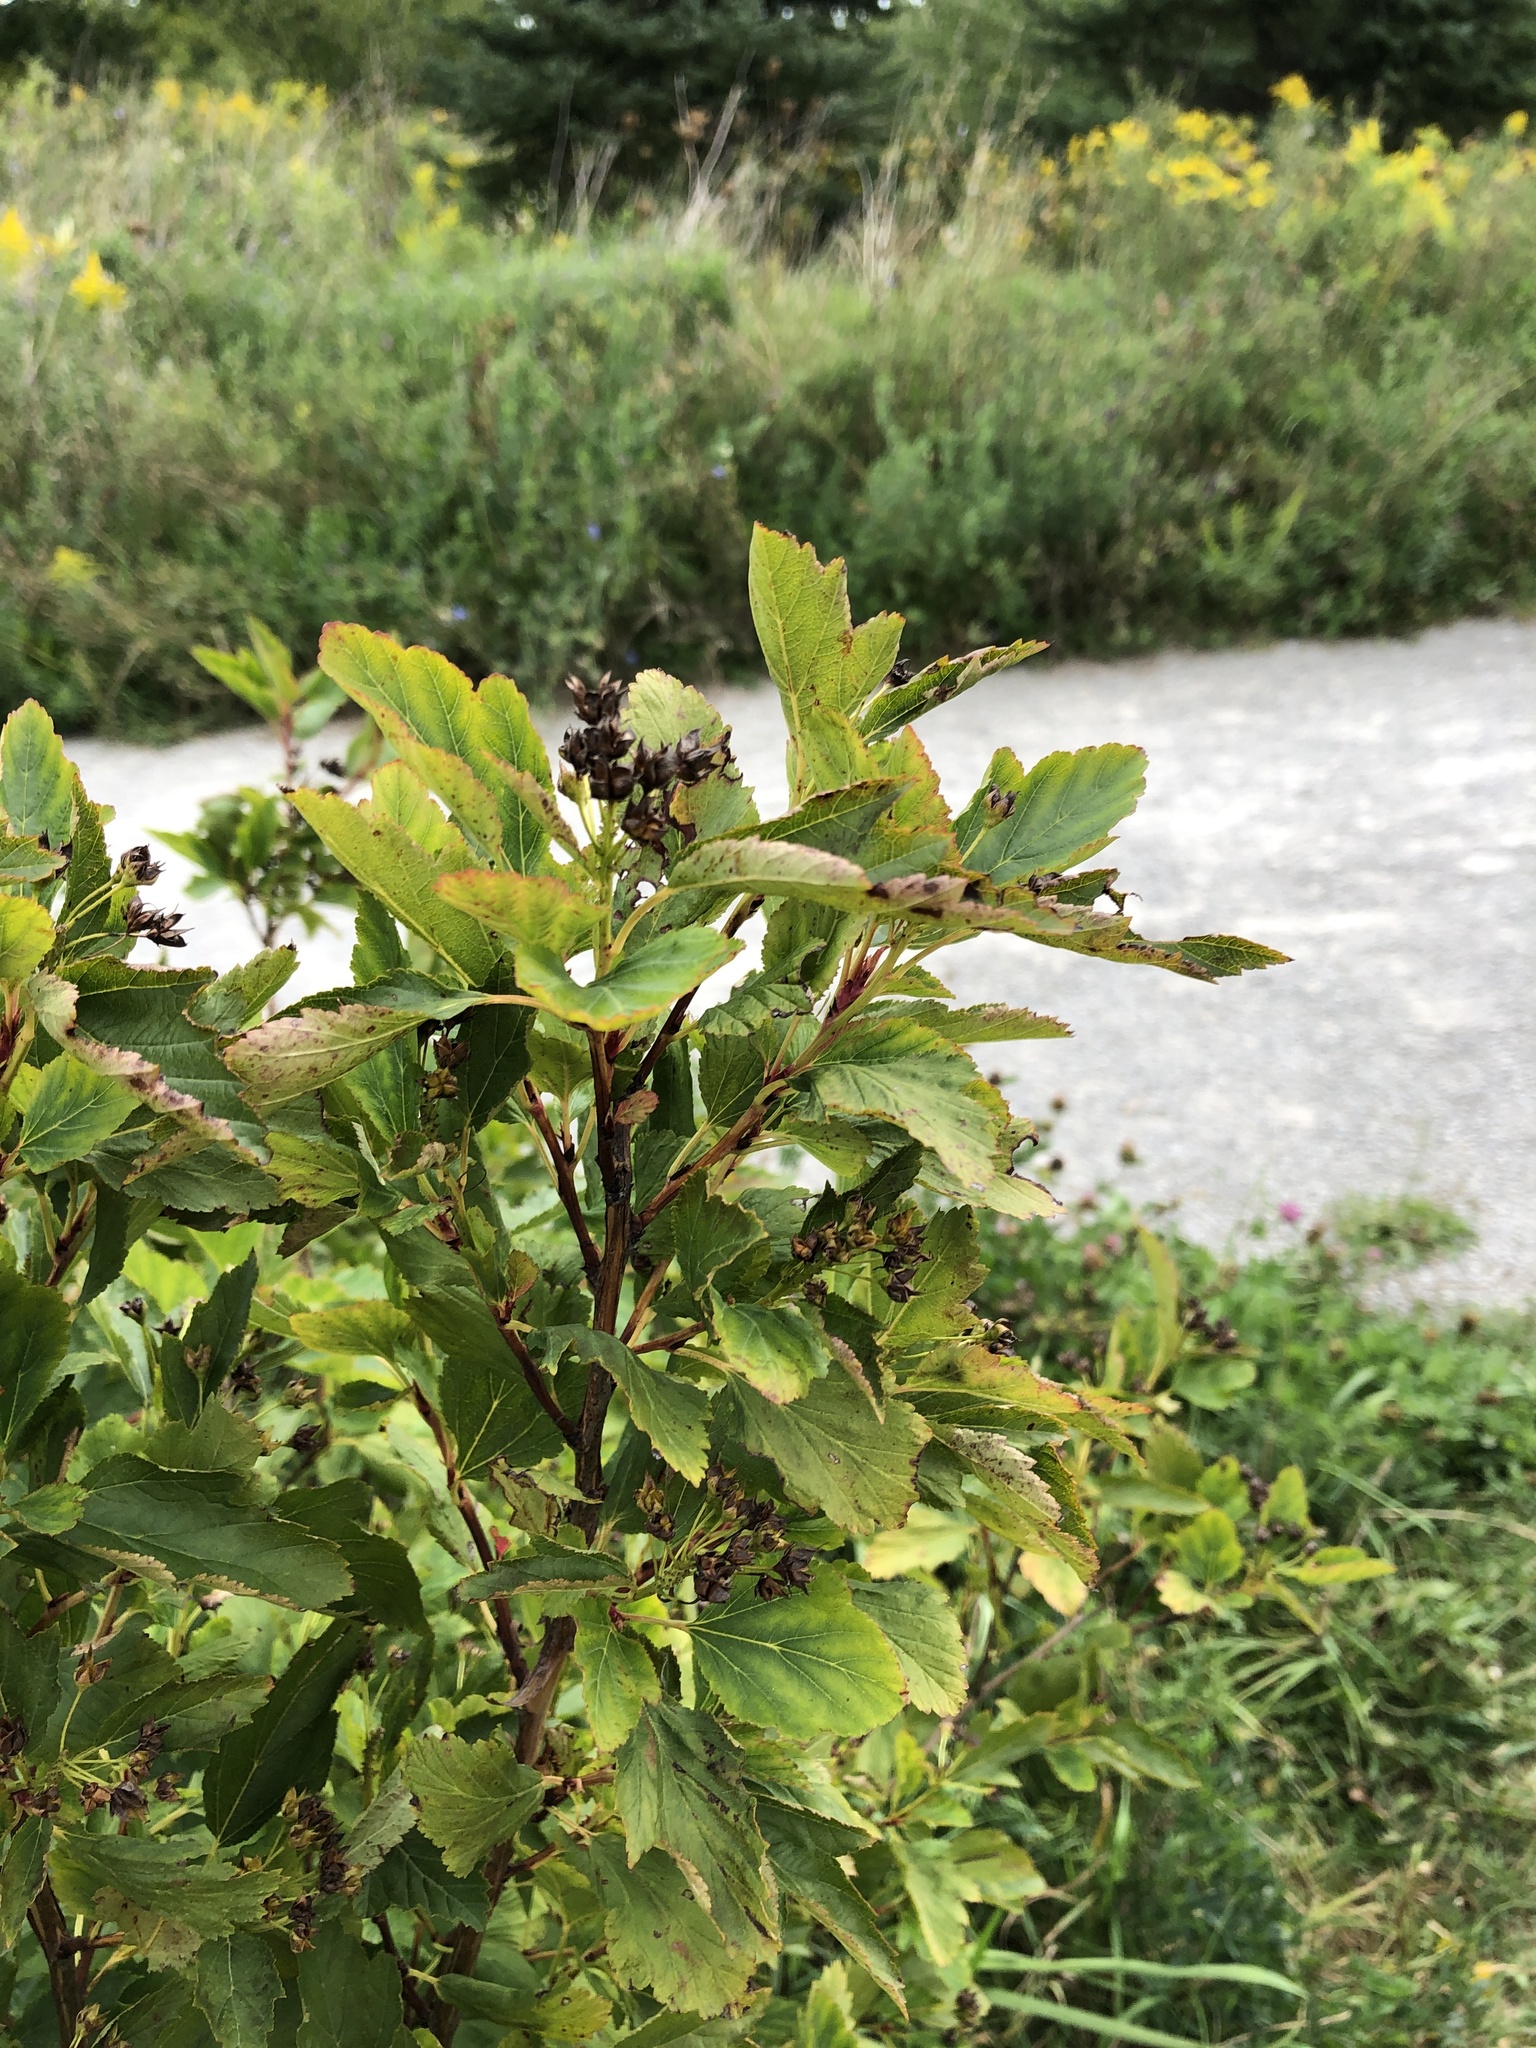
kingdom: Plantae
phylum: Tracheophyta
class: Magnoliopsida
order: Rosales
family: Rosaceae
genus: Physocarpus
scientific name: Physocarpus opulifolius
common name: Ninebark
